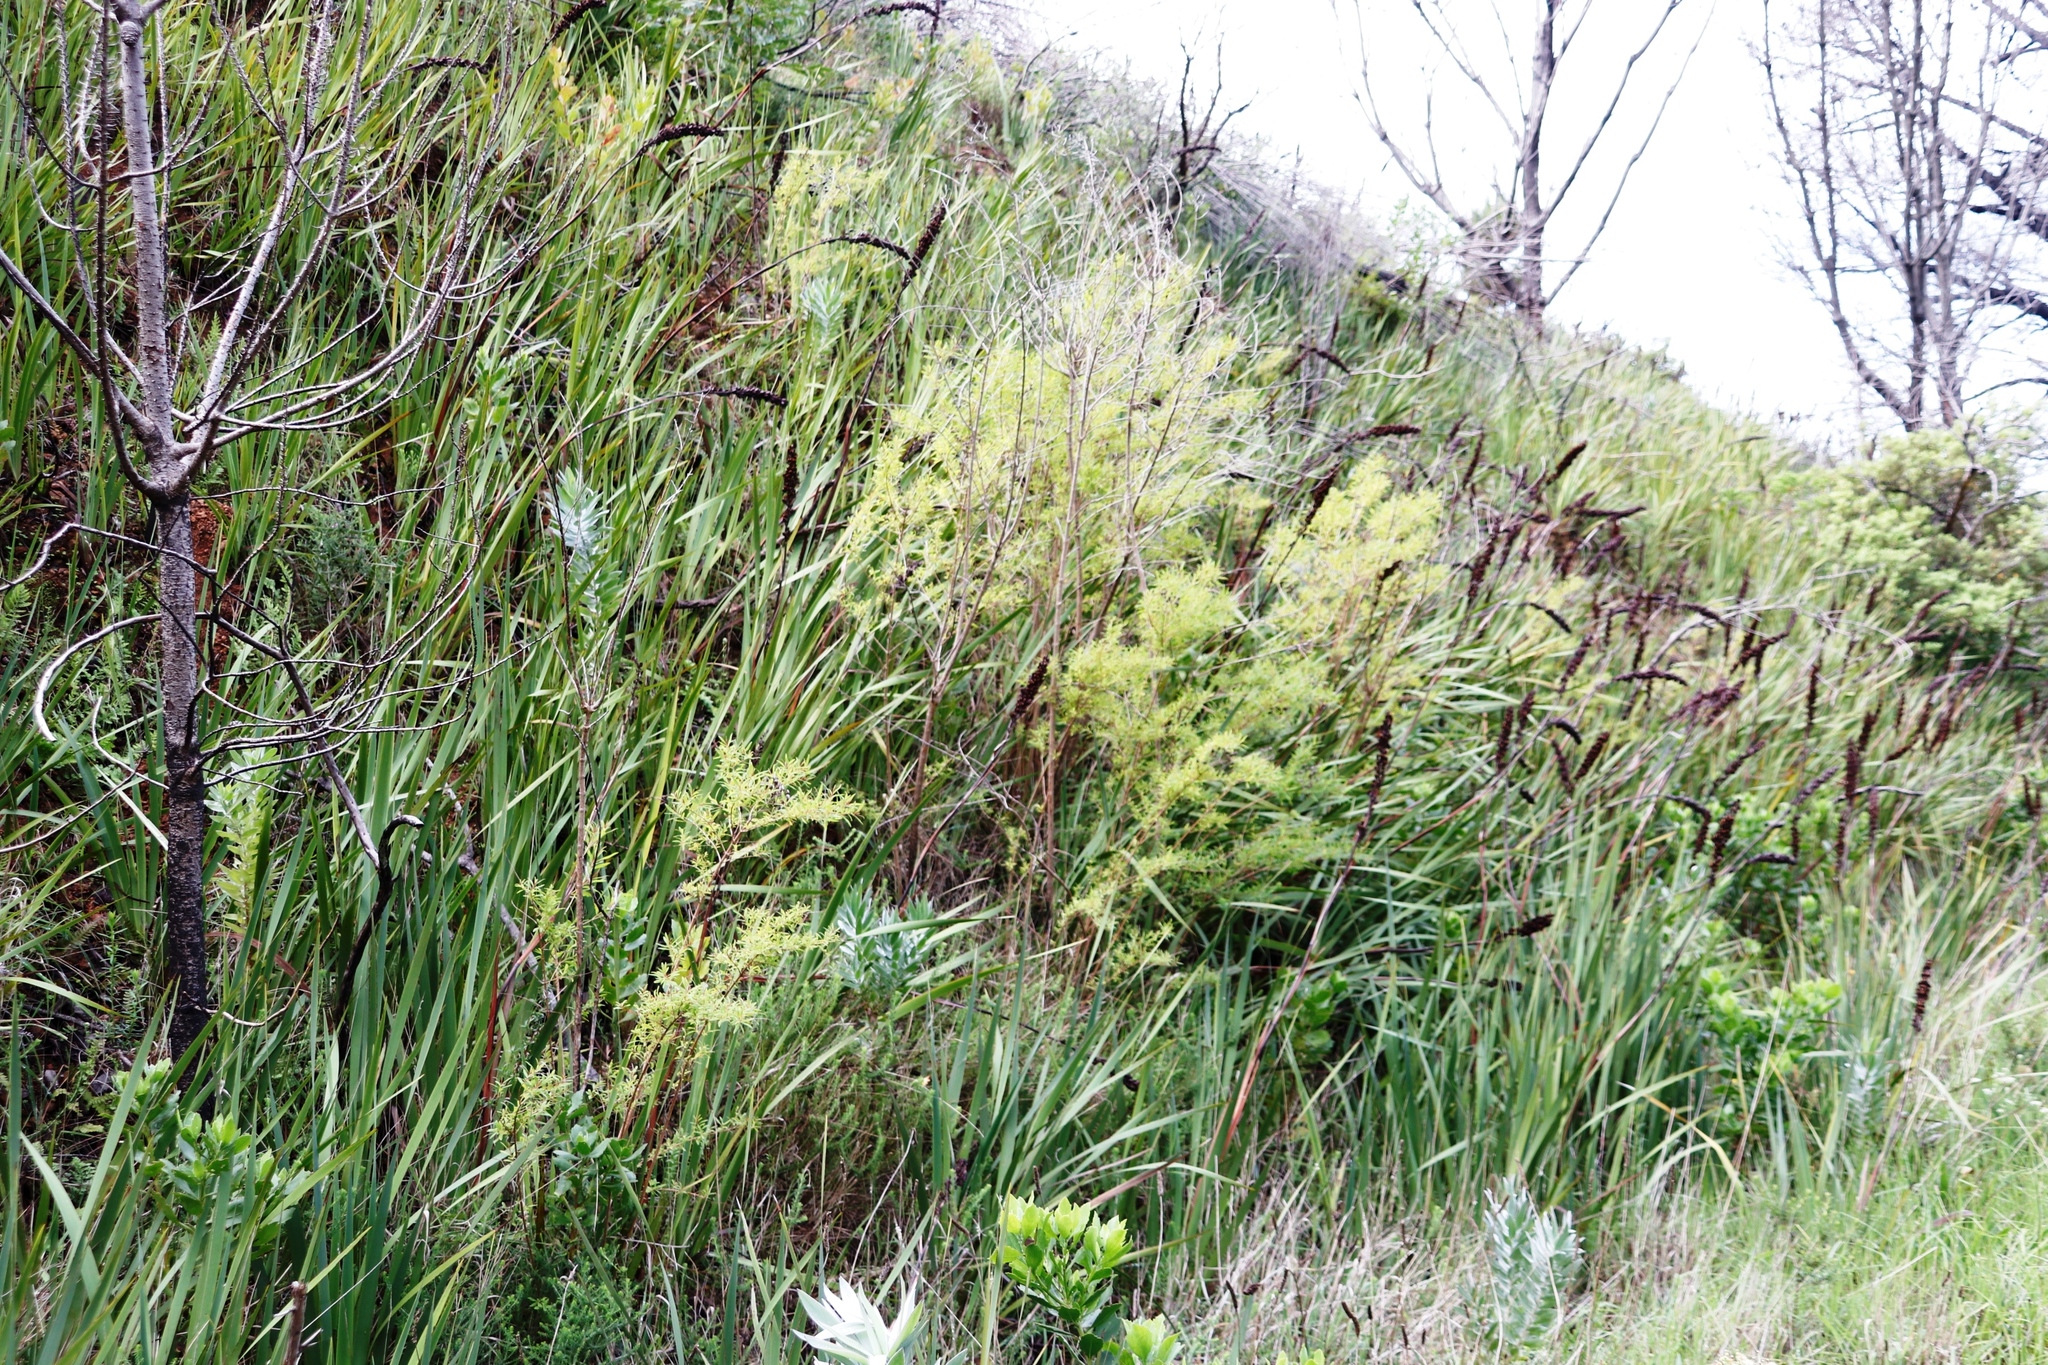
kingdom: Plantae
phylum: Tracheophyta
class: Magnoliopsida
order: Malpighiales
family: Hypericaceae
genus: Hypericum
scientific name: Hypericum canariense
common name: Canary island st. johnswort
